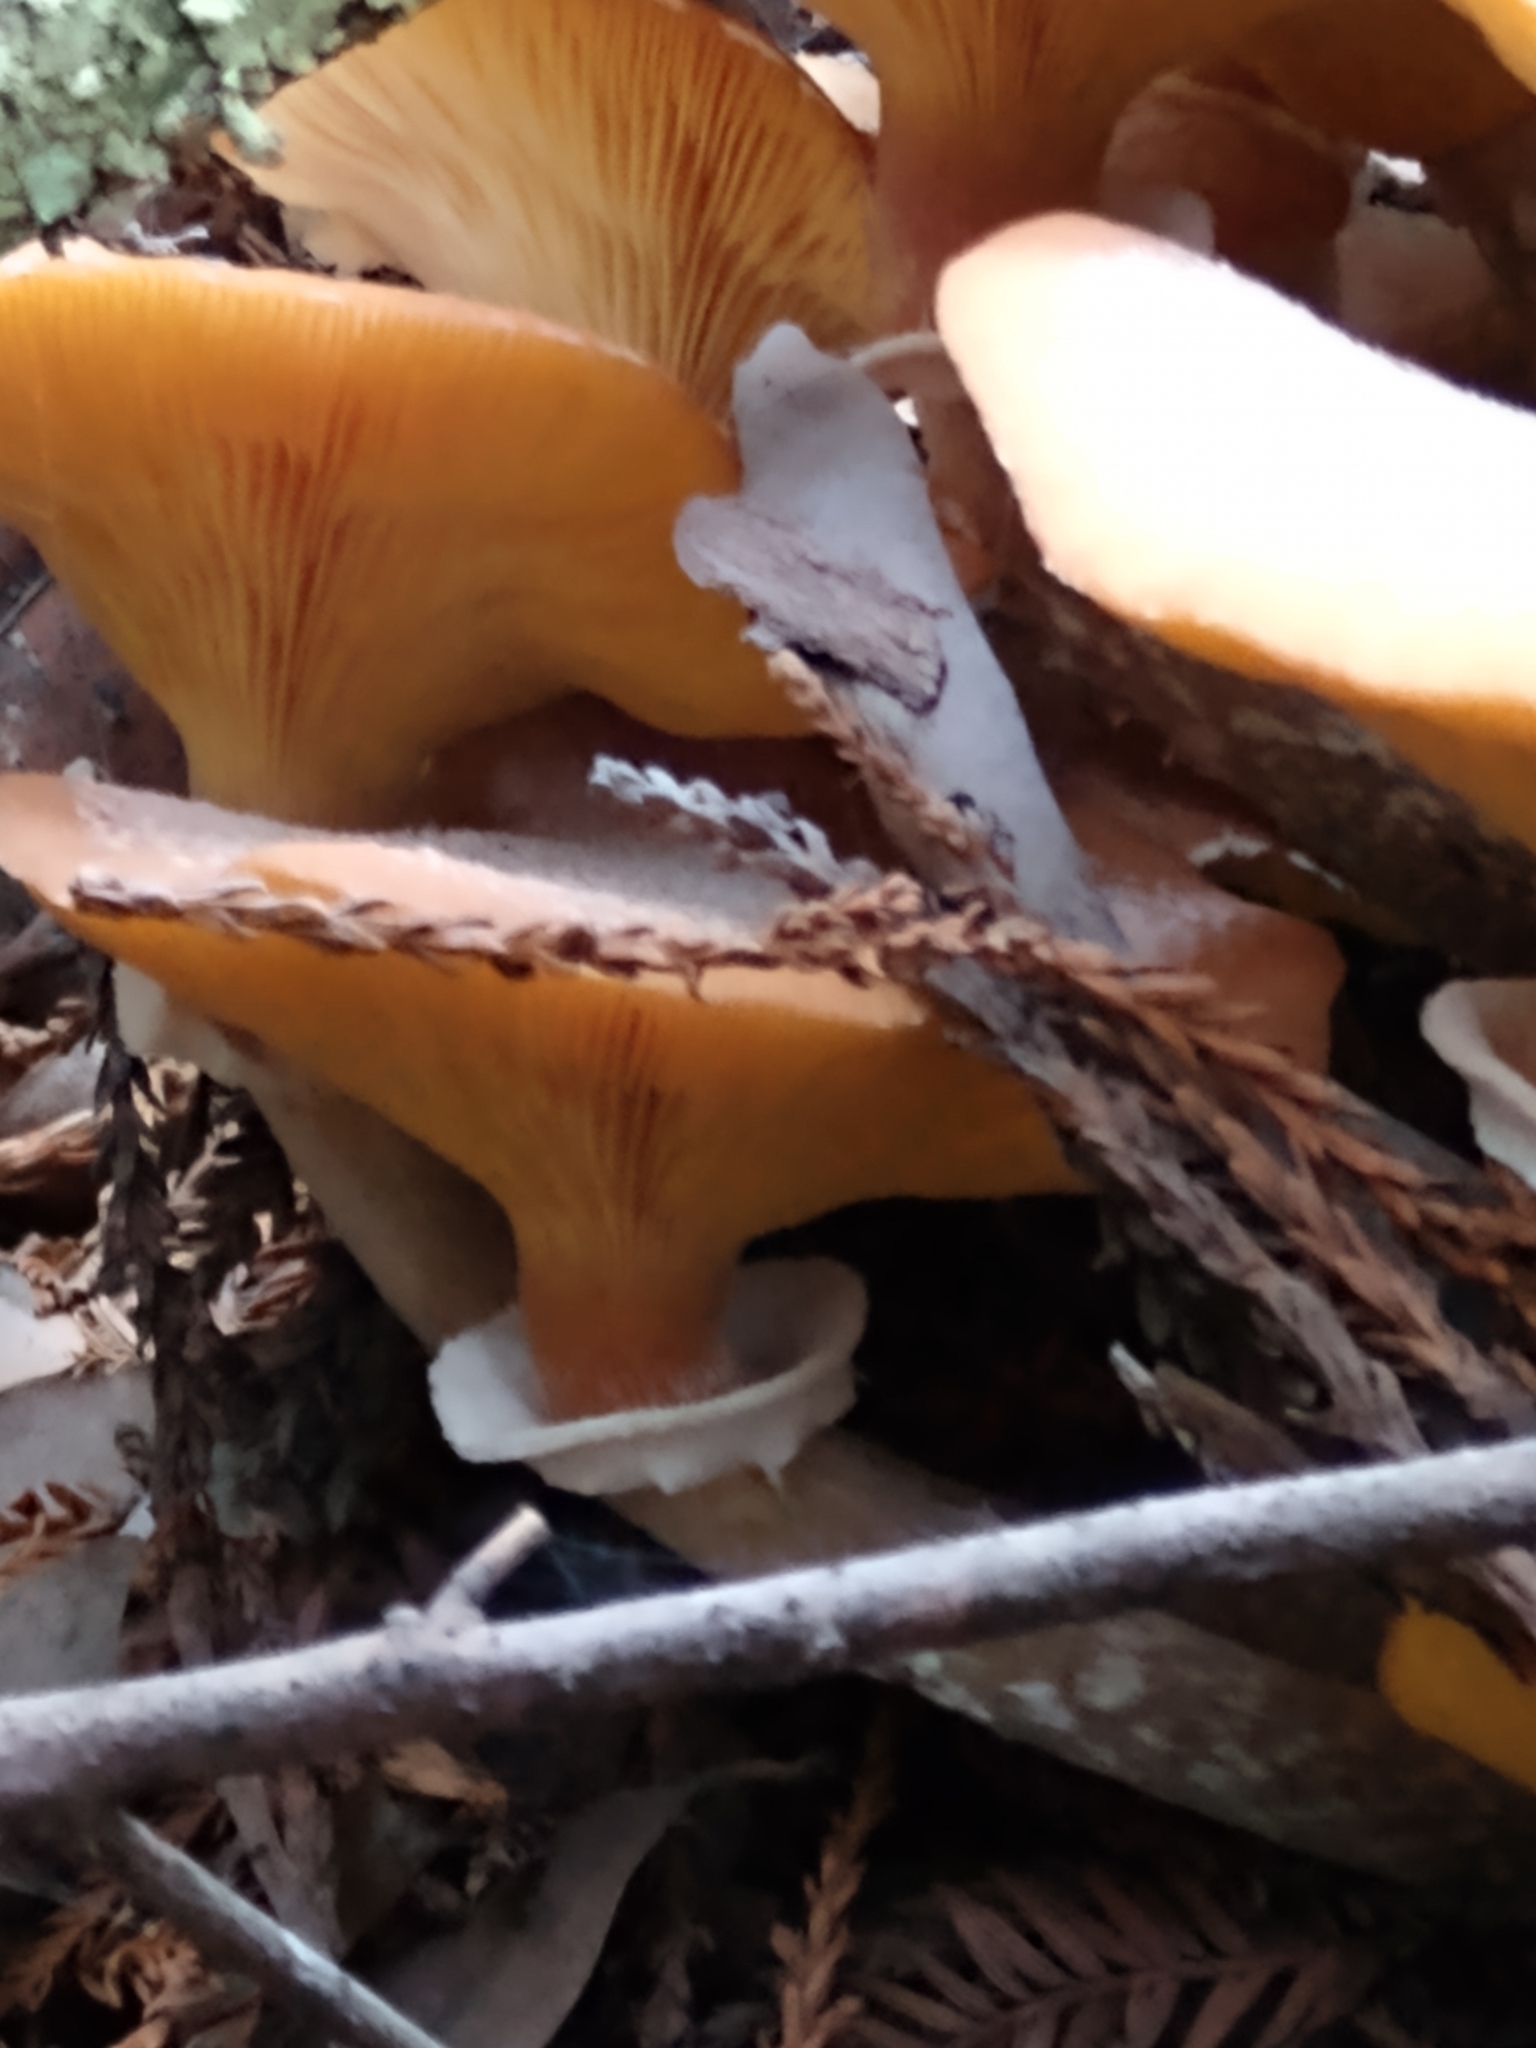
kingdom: Fungi
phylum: Basidiomycota
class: Agaricomycetes
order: Agaricales
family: Physalacriaceae
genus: Armillaria
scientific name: Armillaria mellea
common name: Honey fungus
